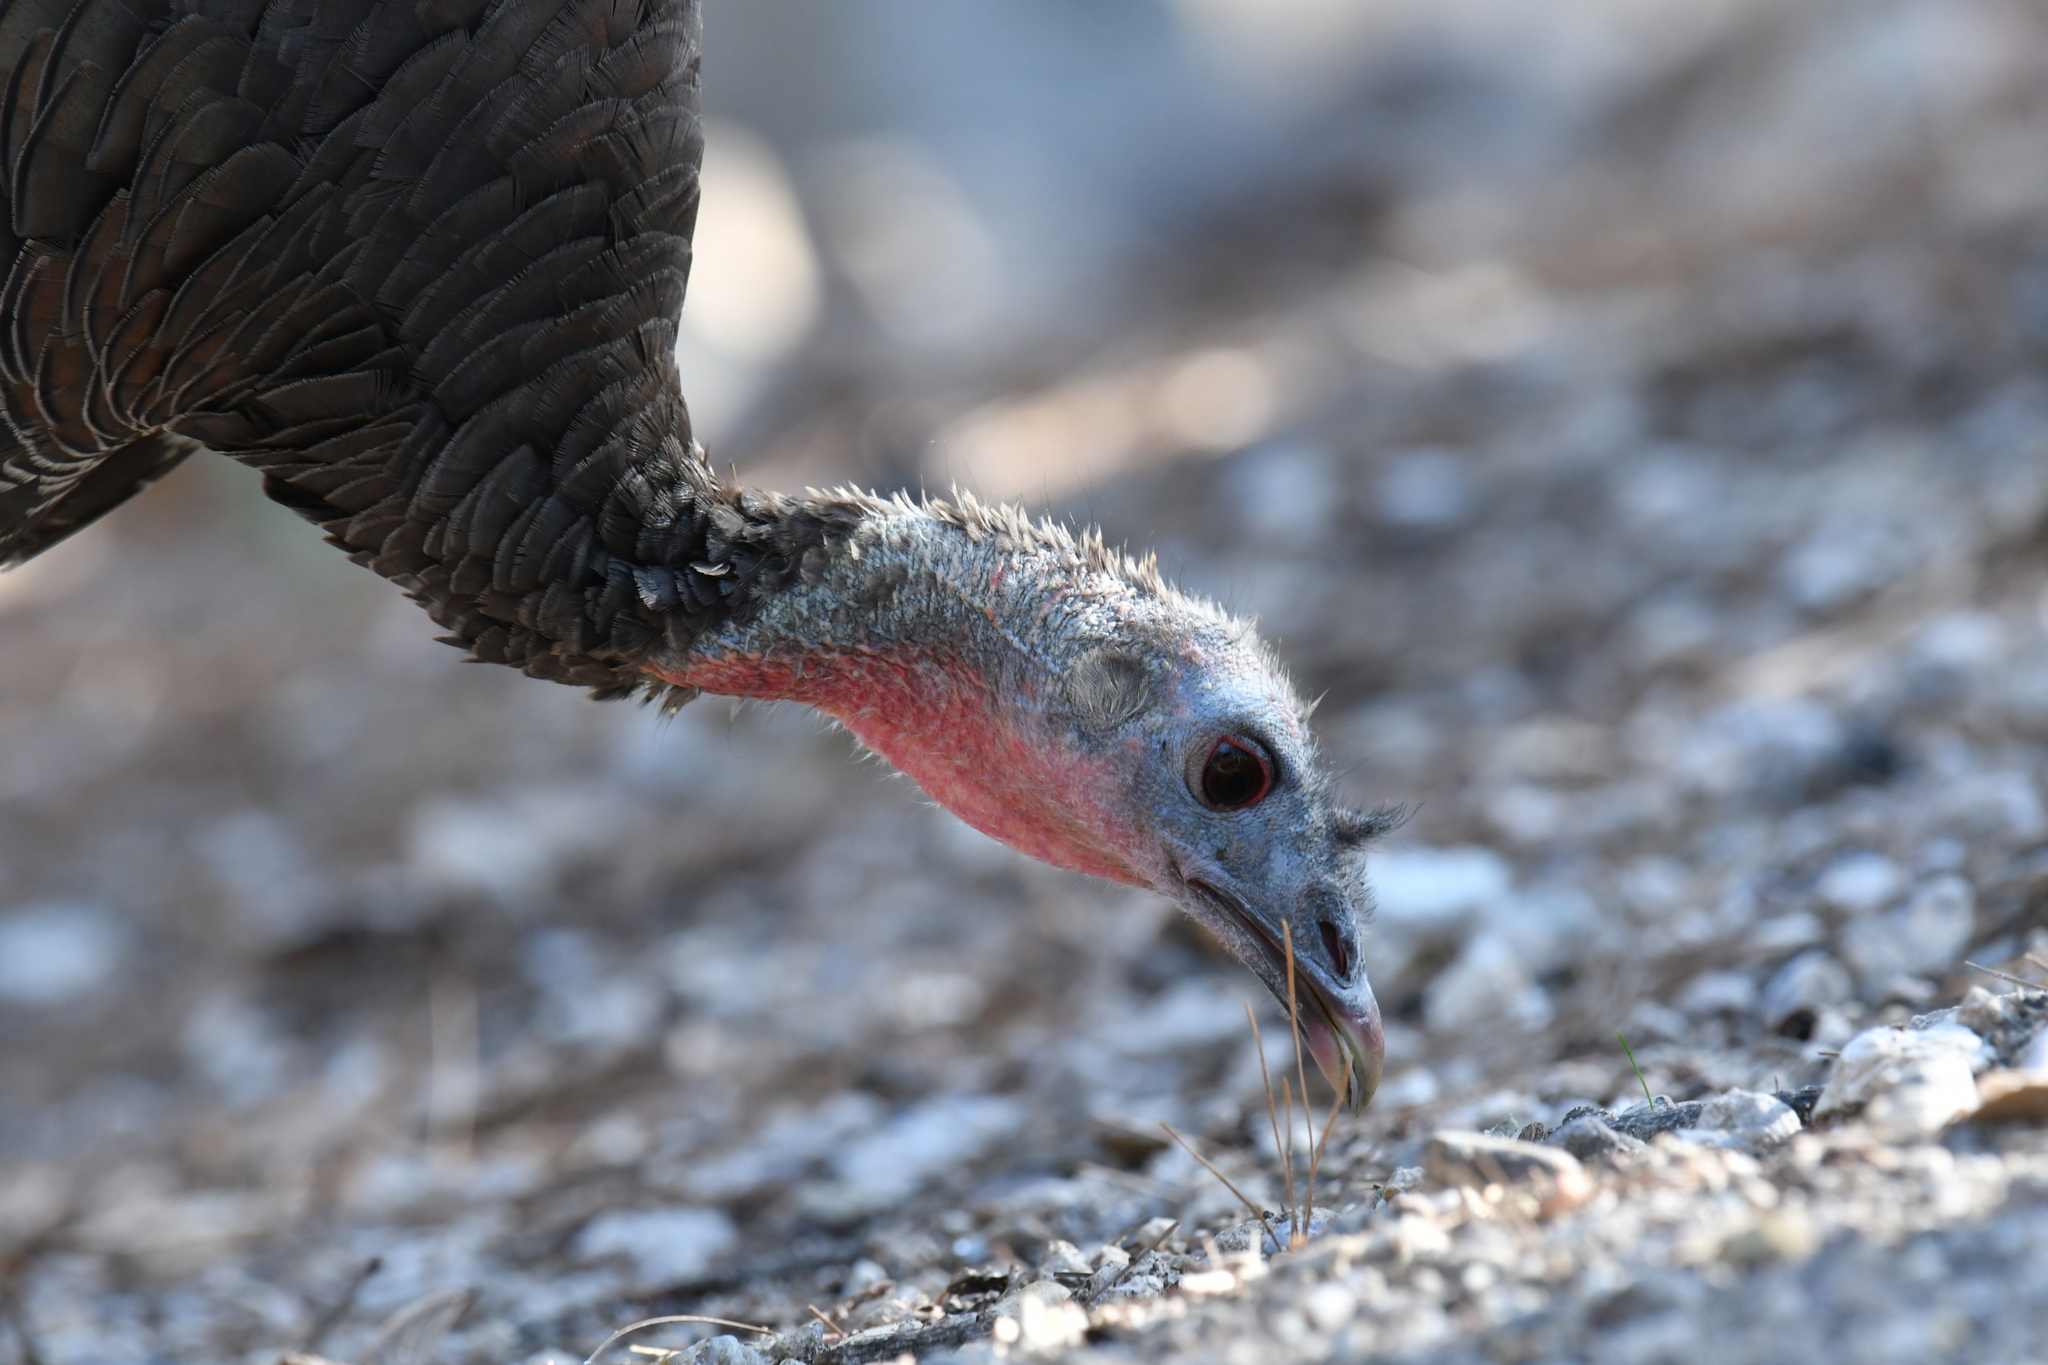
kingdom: Animalia
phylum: Chordata
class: Aves
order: Galliformes
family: Phasianidae
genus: Meleagris
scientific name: Meleagris gallopavo
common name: Wild turkey
